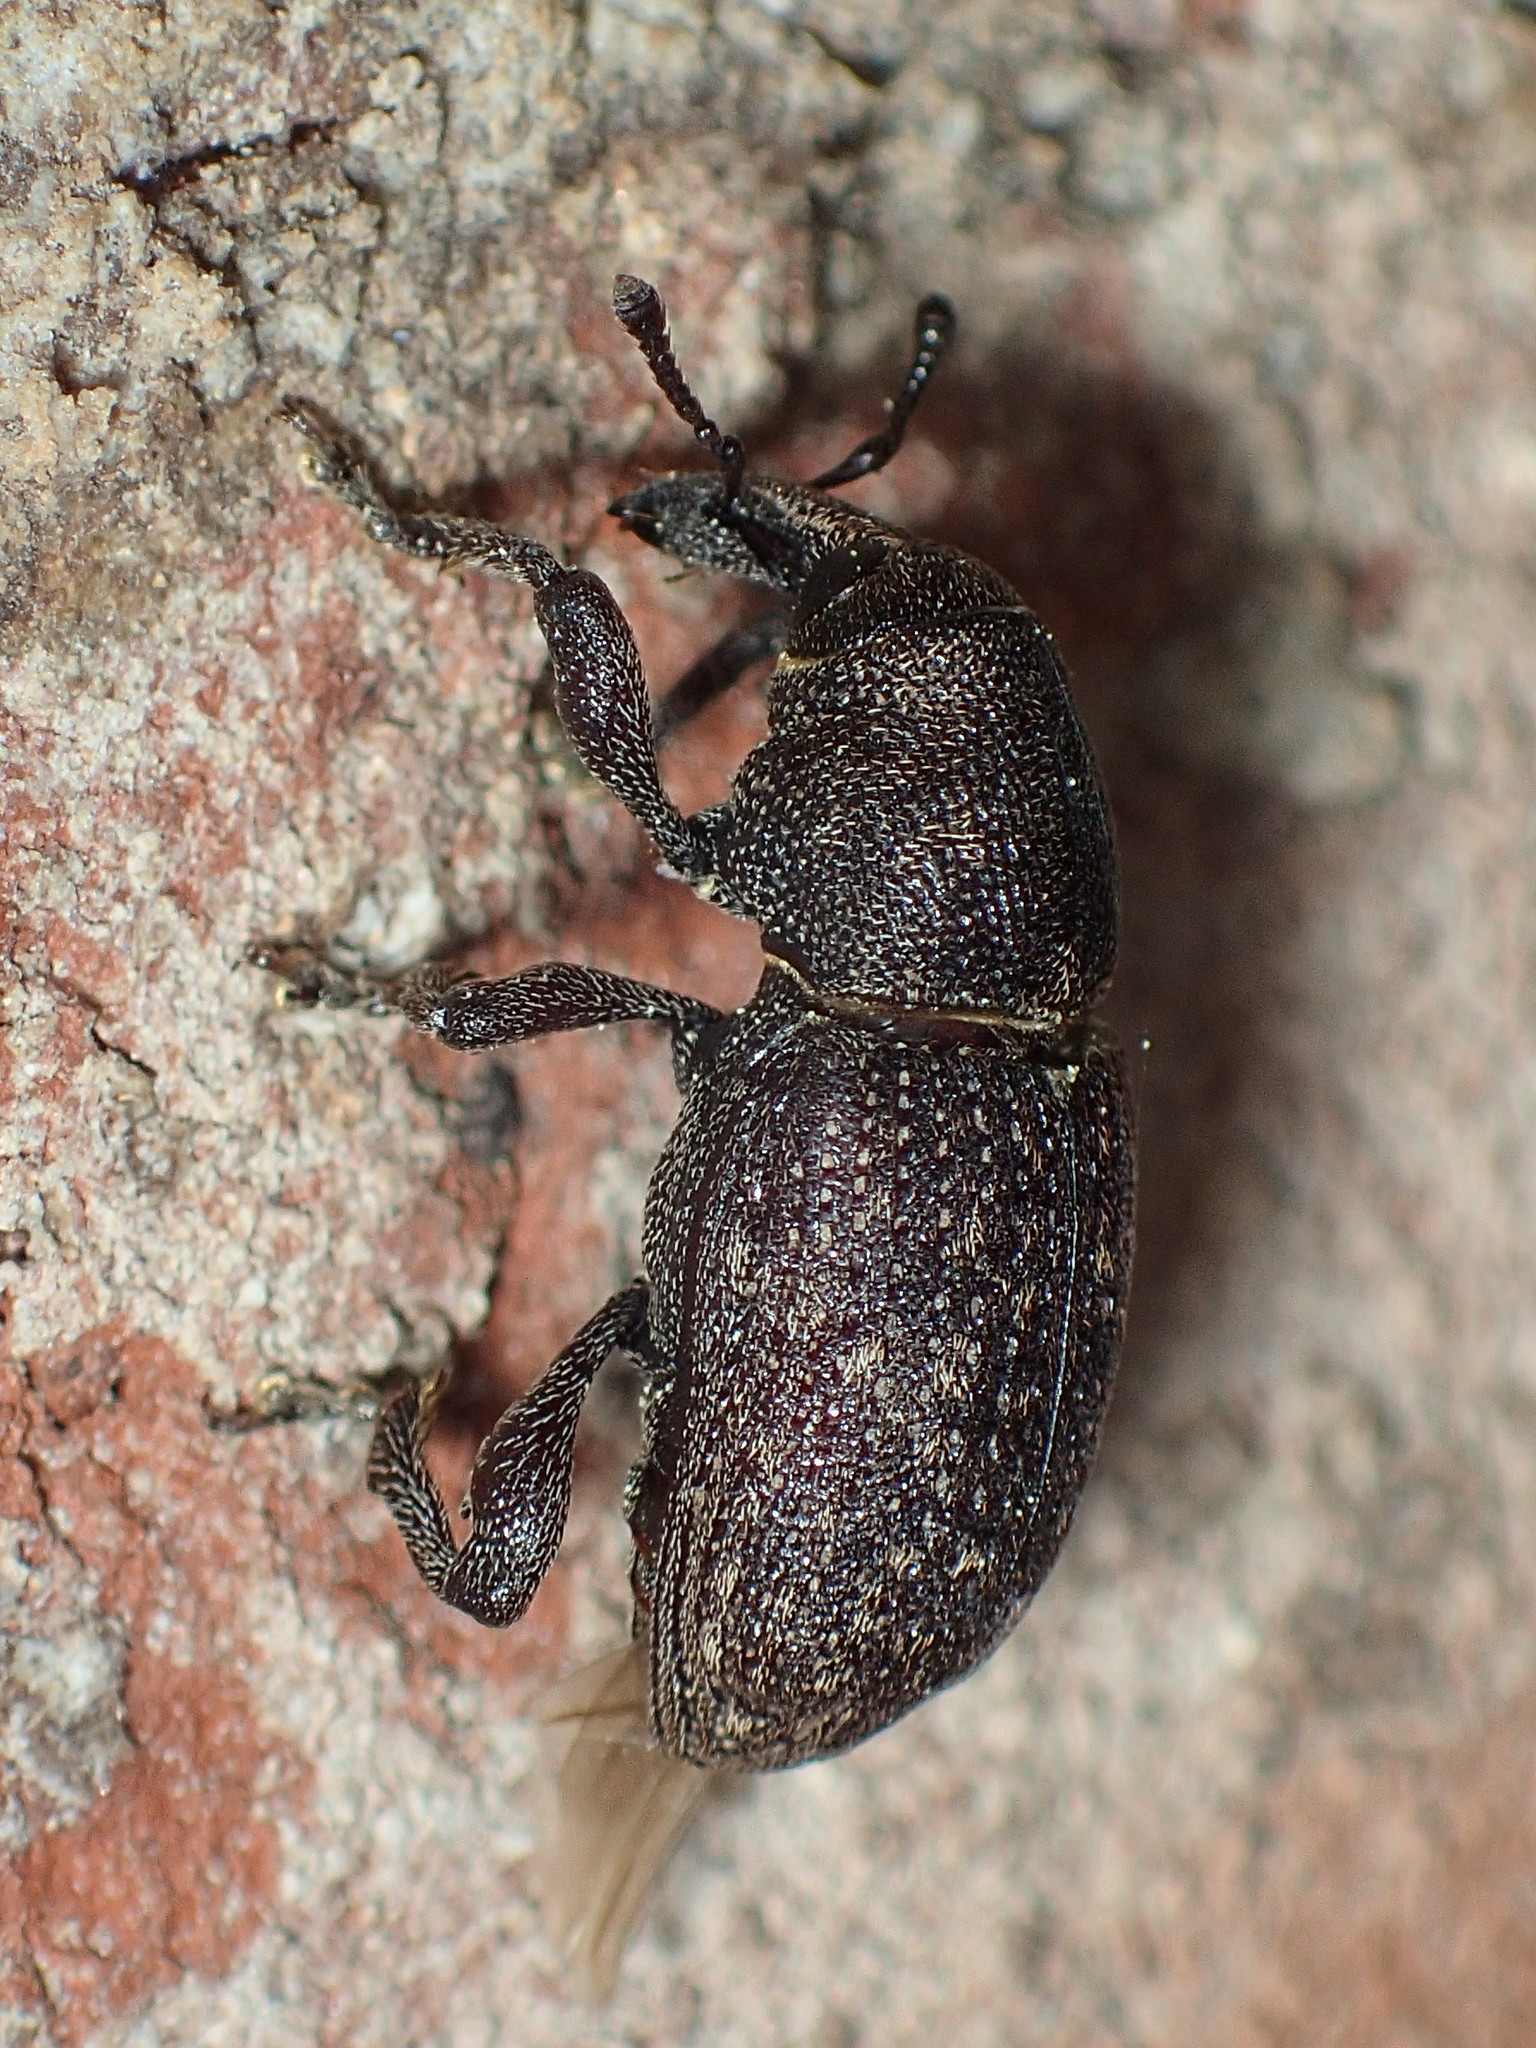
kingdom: Animalia
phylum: Arthropoda
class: Insecta
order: Coleoptera
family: Curculionidae
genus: Pachylobius
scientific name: Pachylobius picivorus
